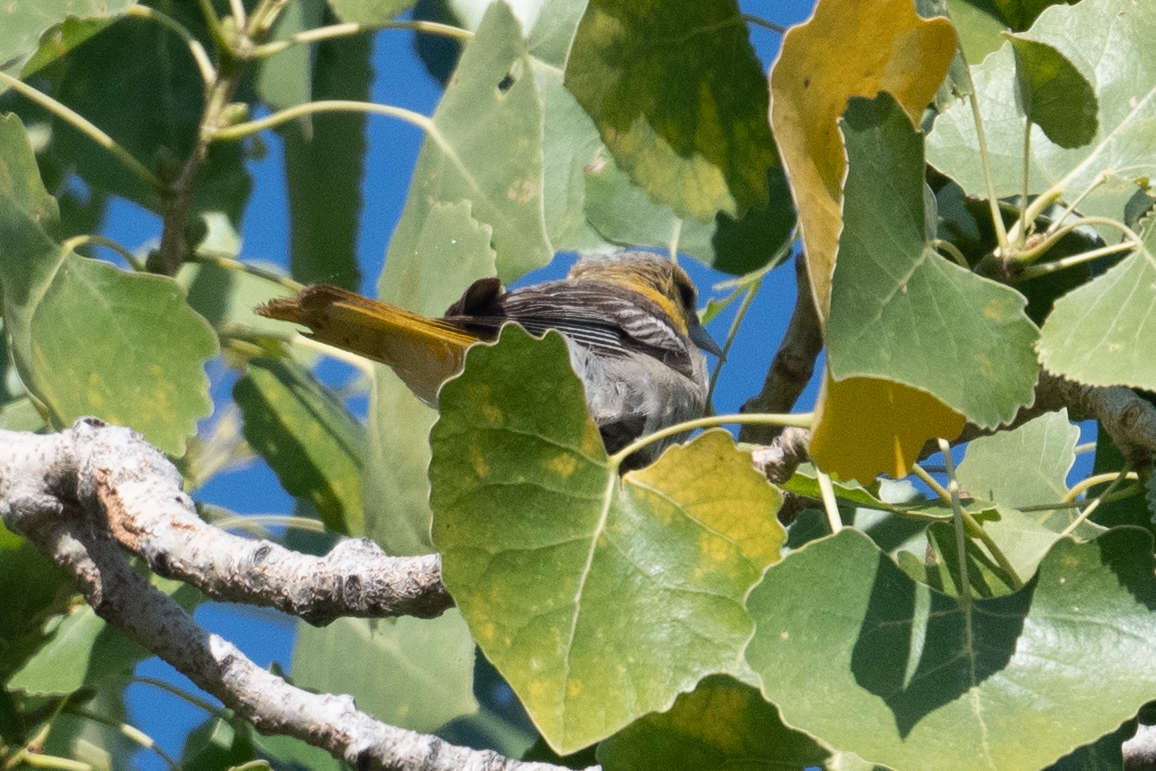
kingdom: Animalia
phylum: Chordata
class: Aves
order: Passeriformes
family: Icteridae
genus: Icterus
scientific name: Icterus bullockii
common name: Bullock's oriole
